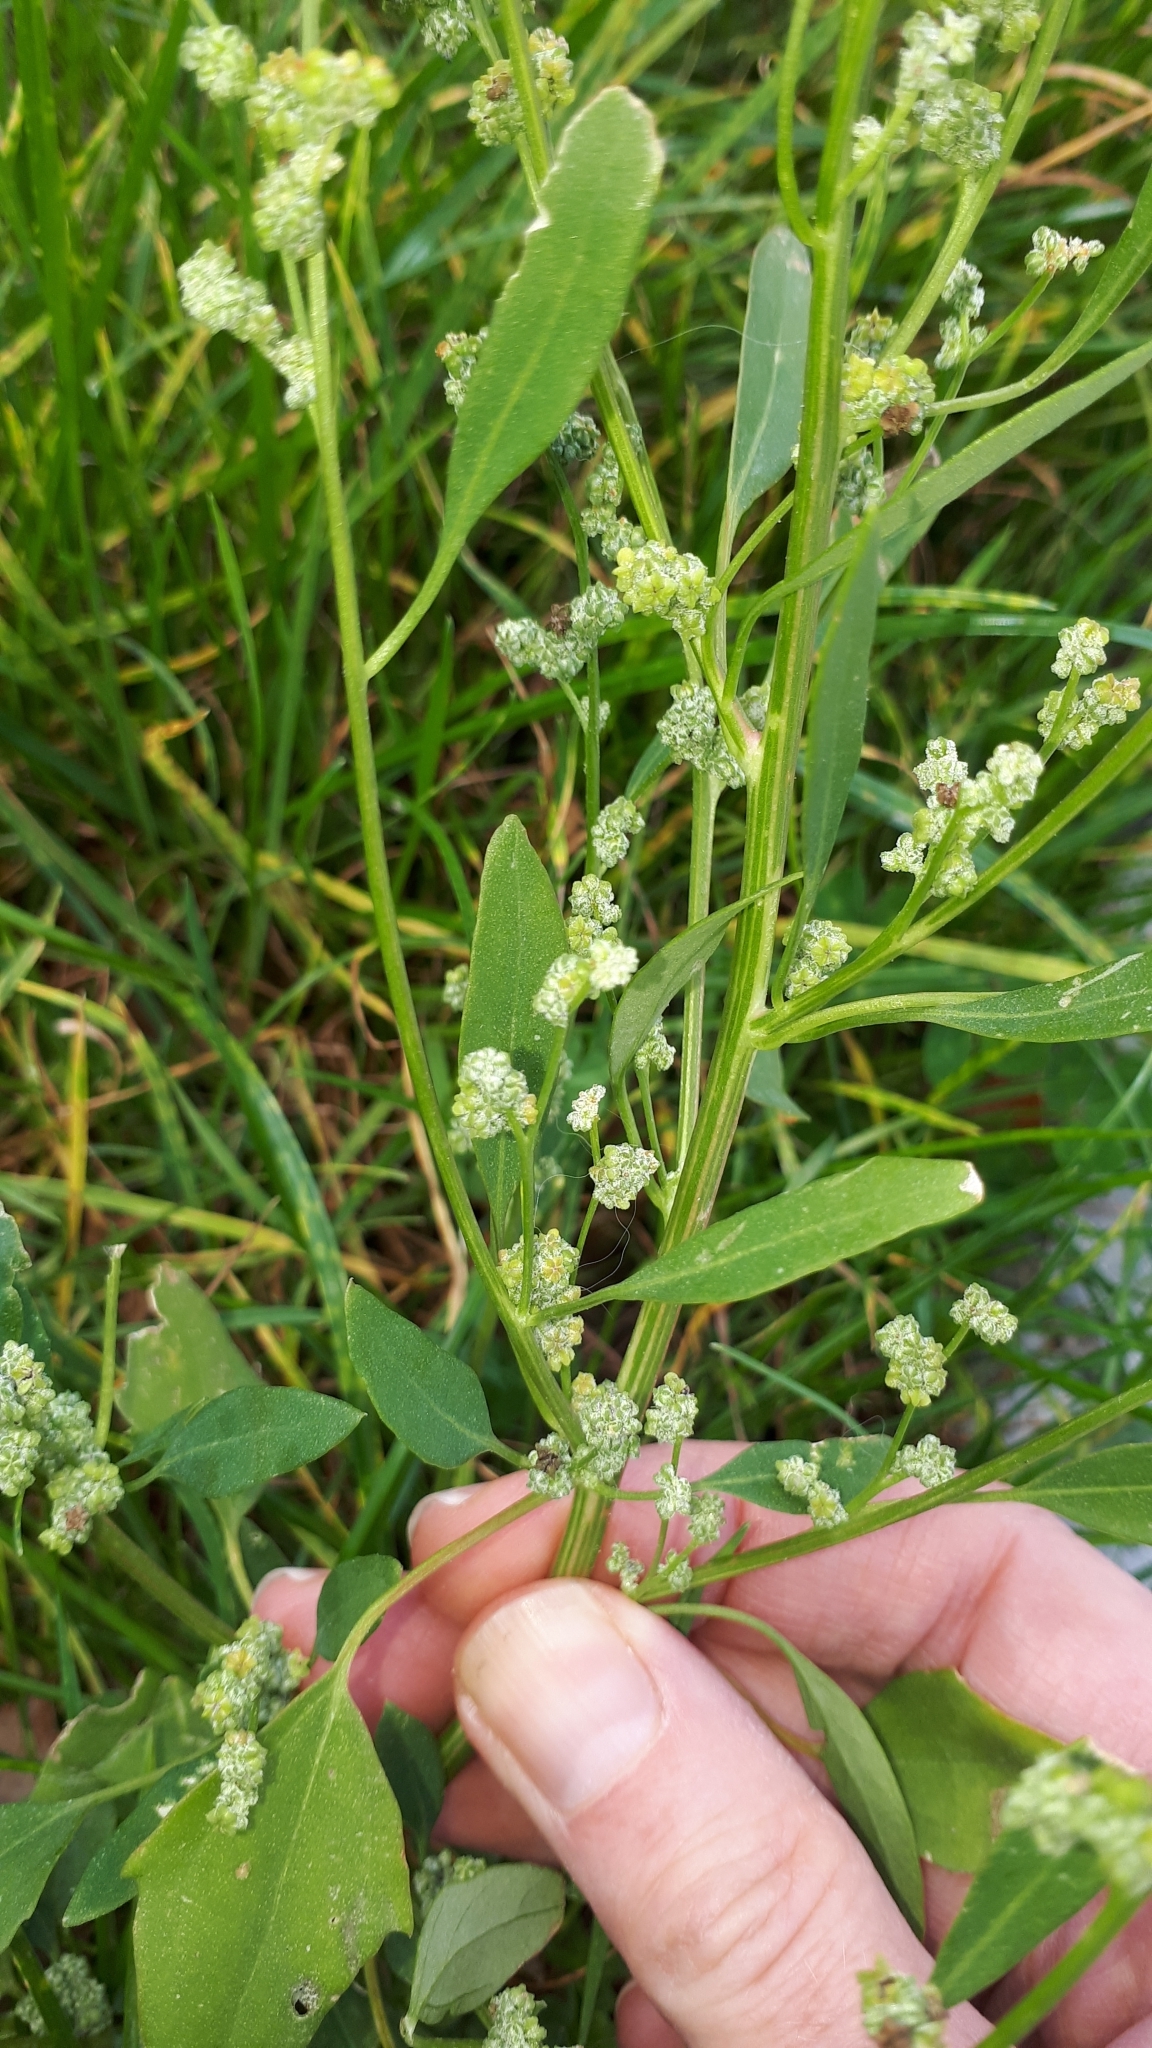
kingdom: Plantae
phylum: Tracheophyta
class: Magnoliopsida
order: Caryophyllales
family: Amaranthaceae
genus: Chenopodium
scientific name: Chenopodium album
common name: Fat-hen
